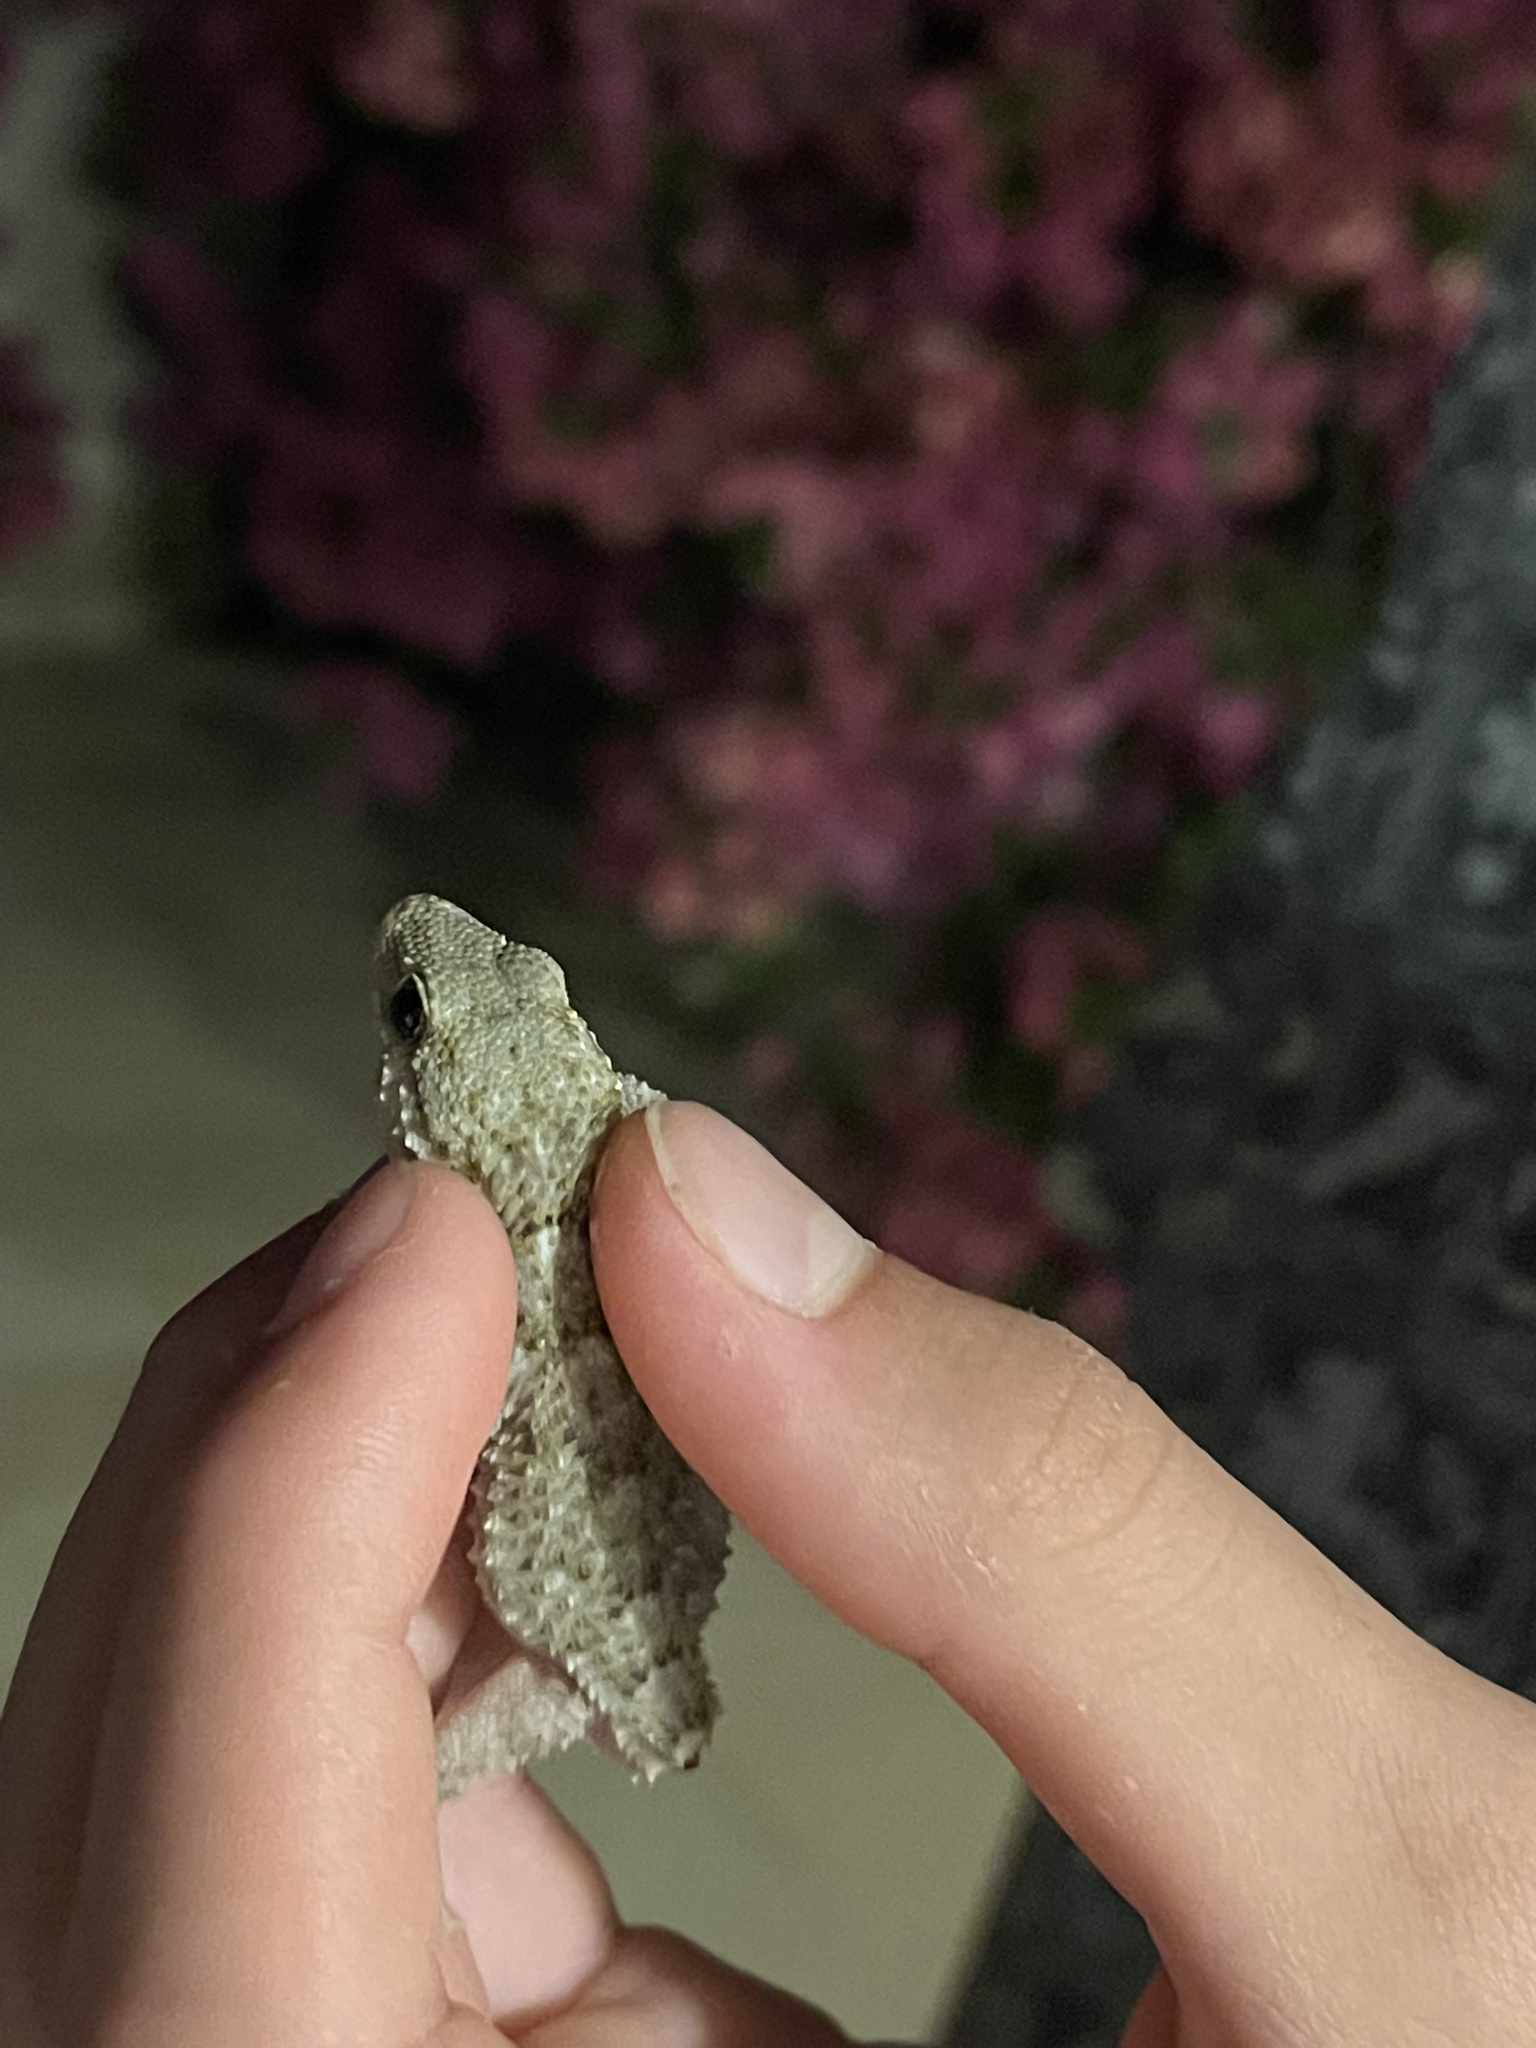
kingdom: Animalia
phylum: Chordata
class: Squamata
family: Phyllodactylidae
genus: Tarentola
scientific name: Tarentola mauritanica
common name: Moorish gecko
